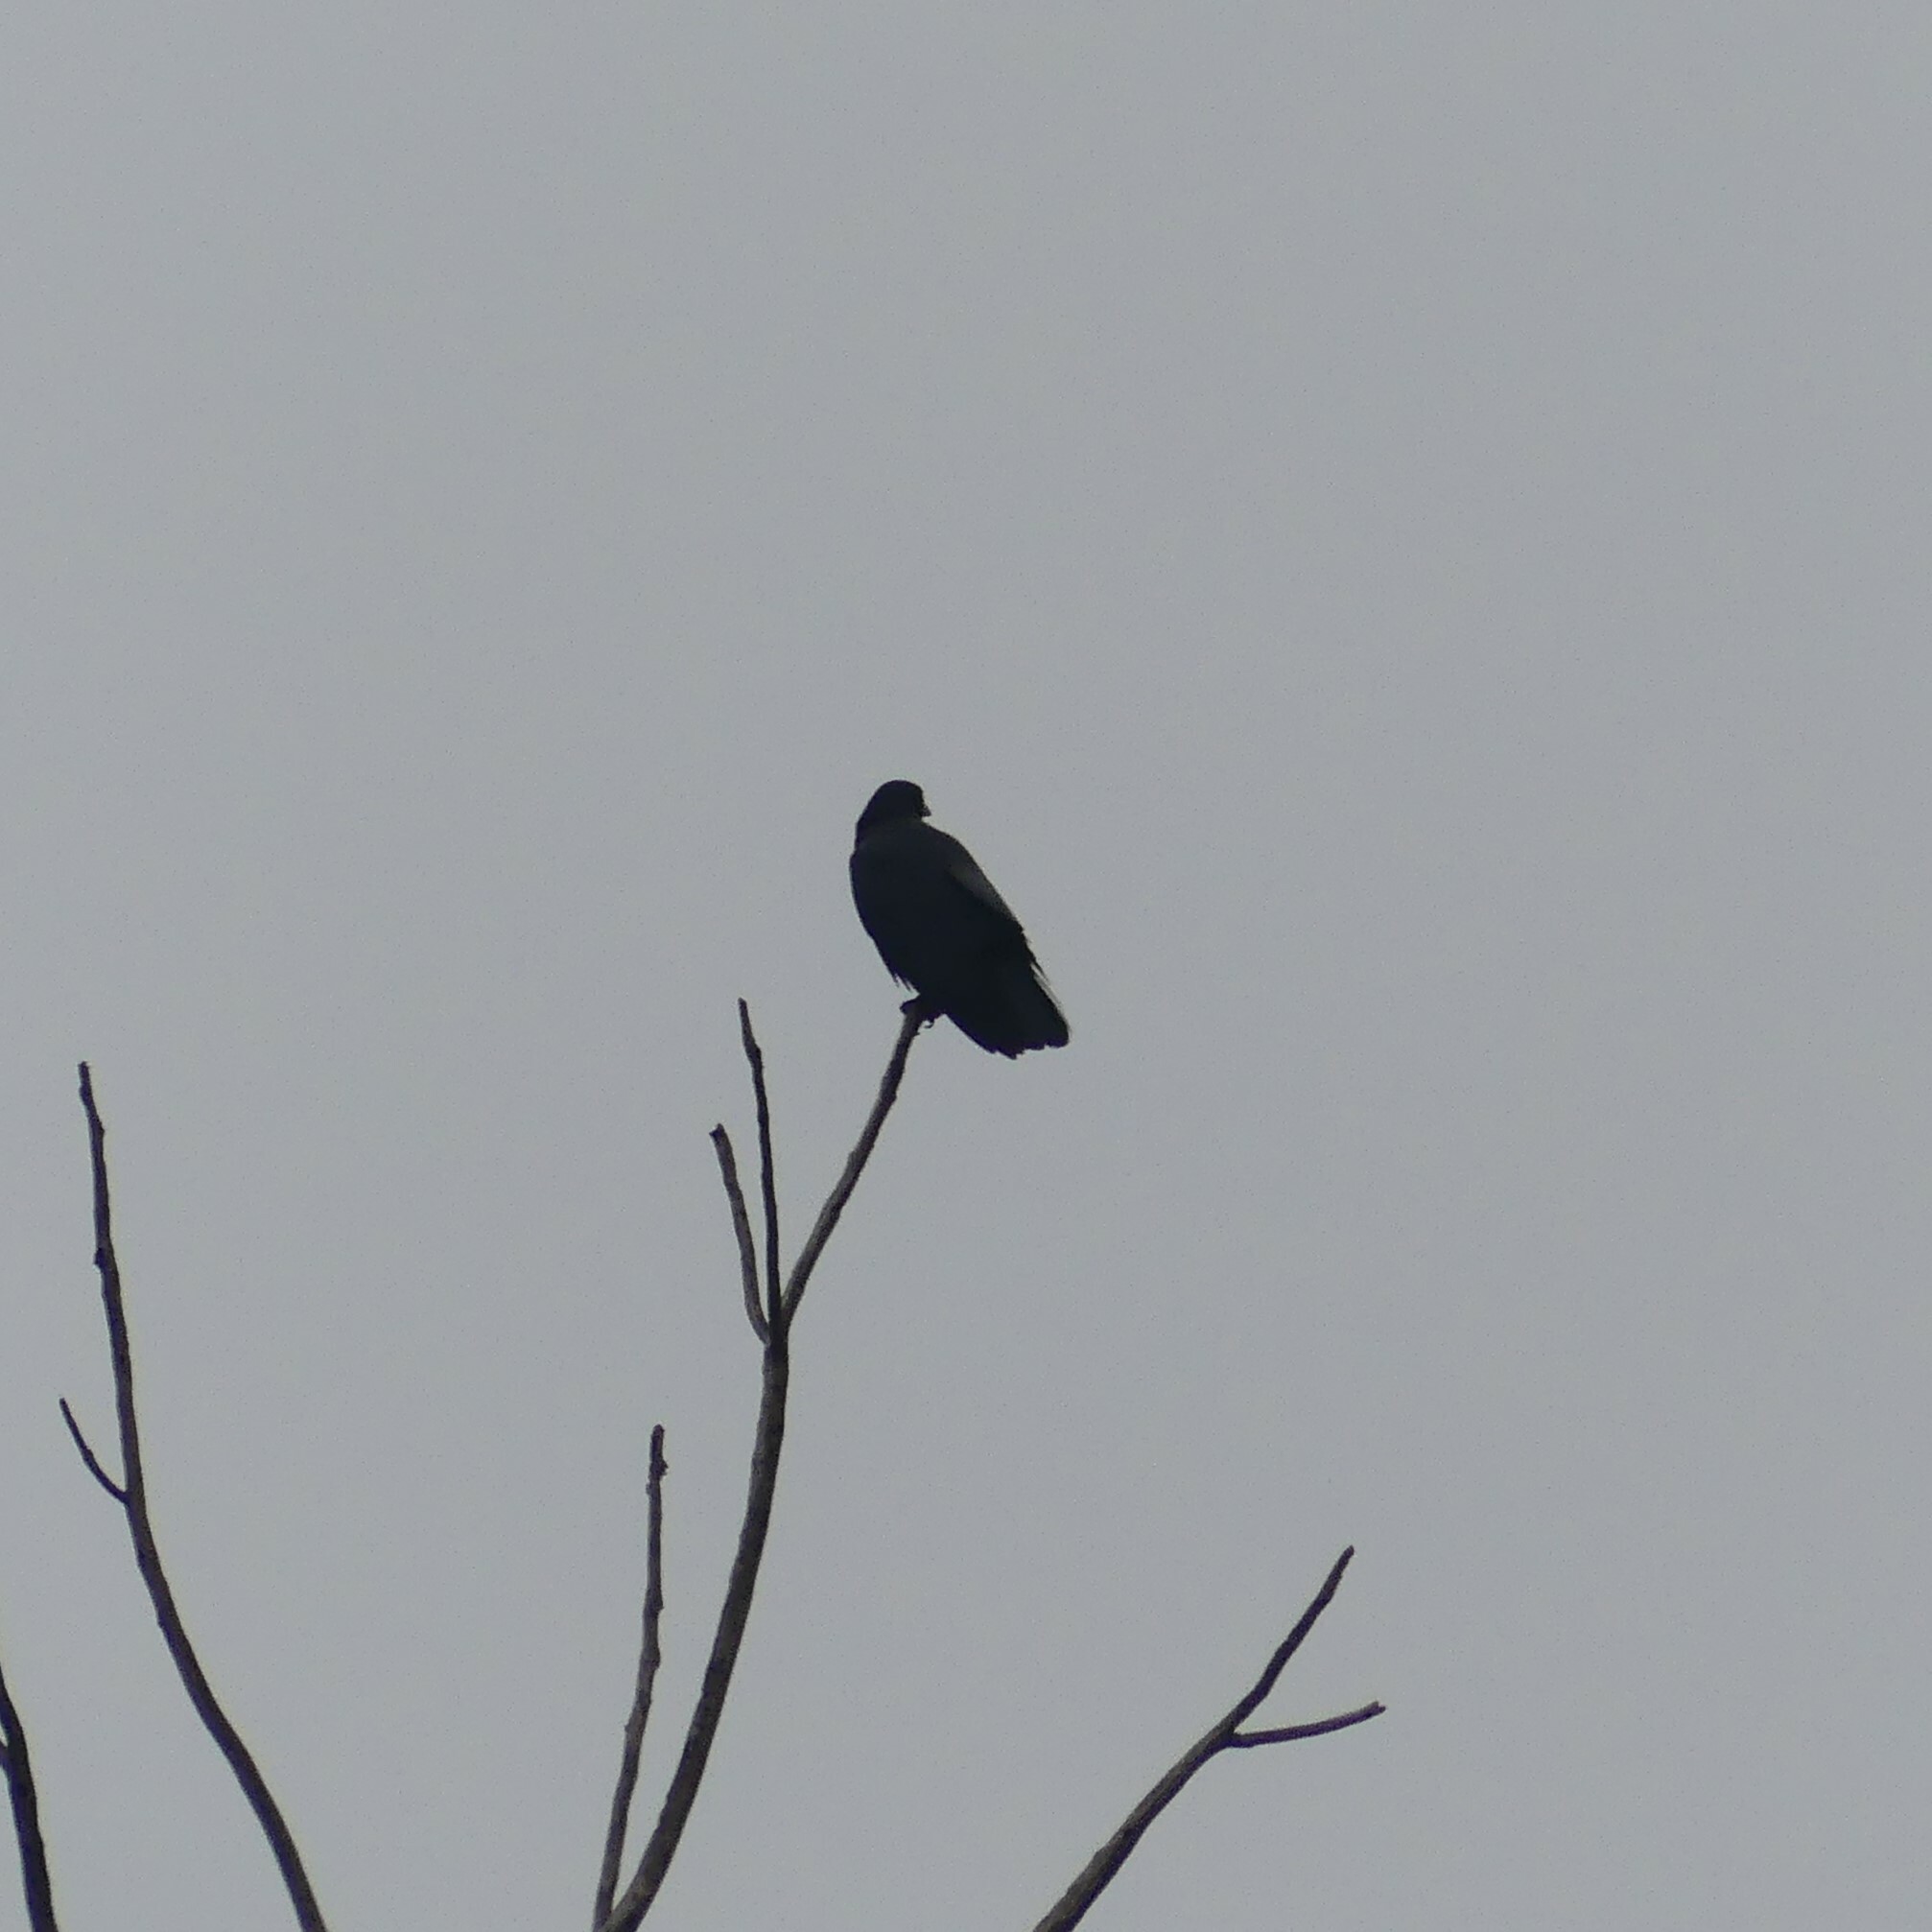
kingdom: Animalia
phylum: Chordata
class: Aves
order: Passeriformes
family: Corvidae
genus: Corvus
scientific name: Corvus brachyrhynchos
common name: American crow
